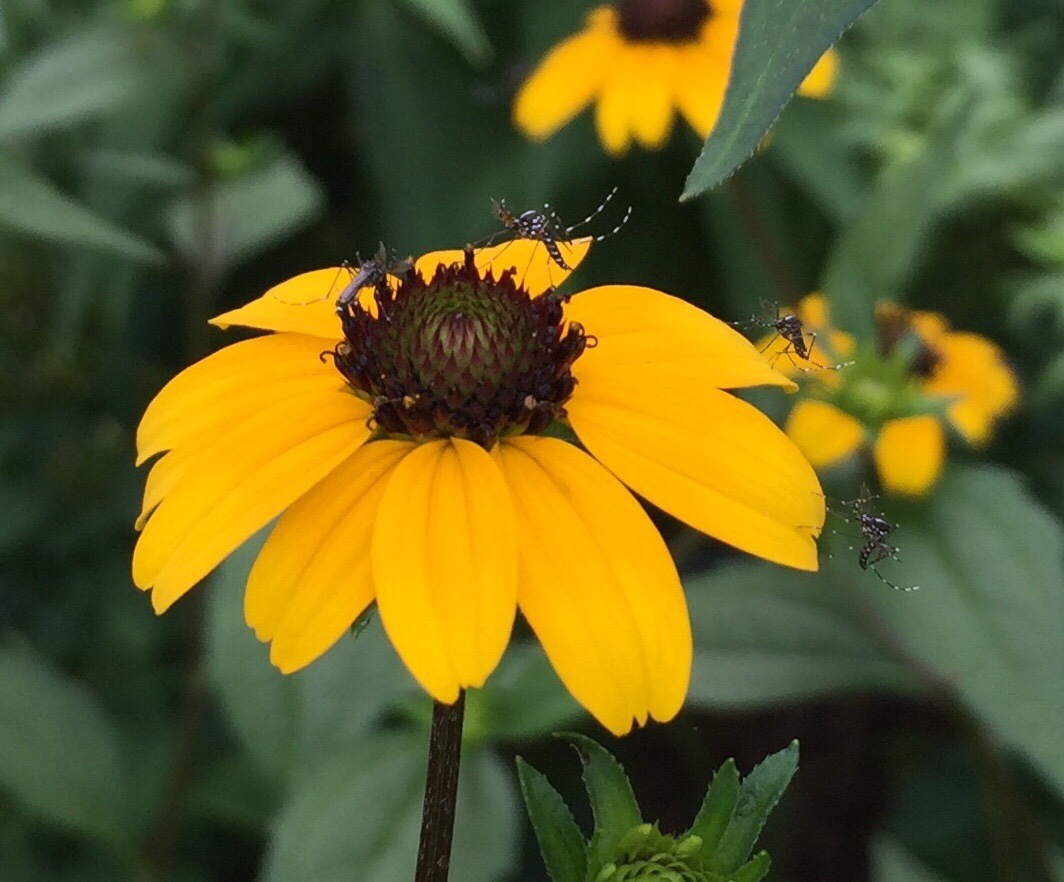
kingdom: Animalia
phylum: Arthropoda
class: Insecta
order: Diptera
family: Culicidae
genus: Aedes
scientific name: Aedes albopictus
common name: Tiger mosquito
